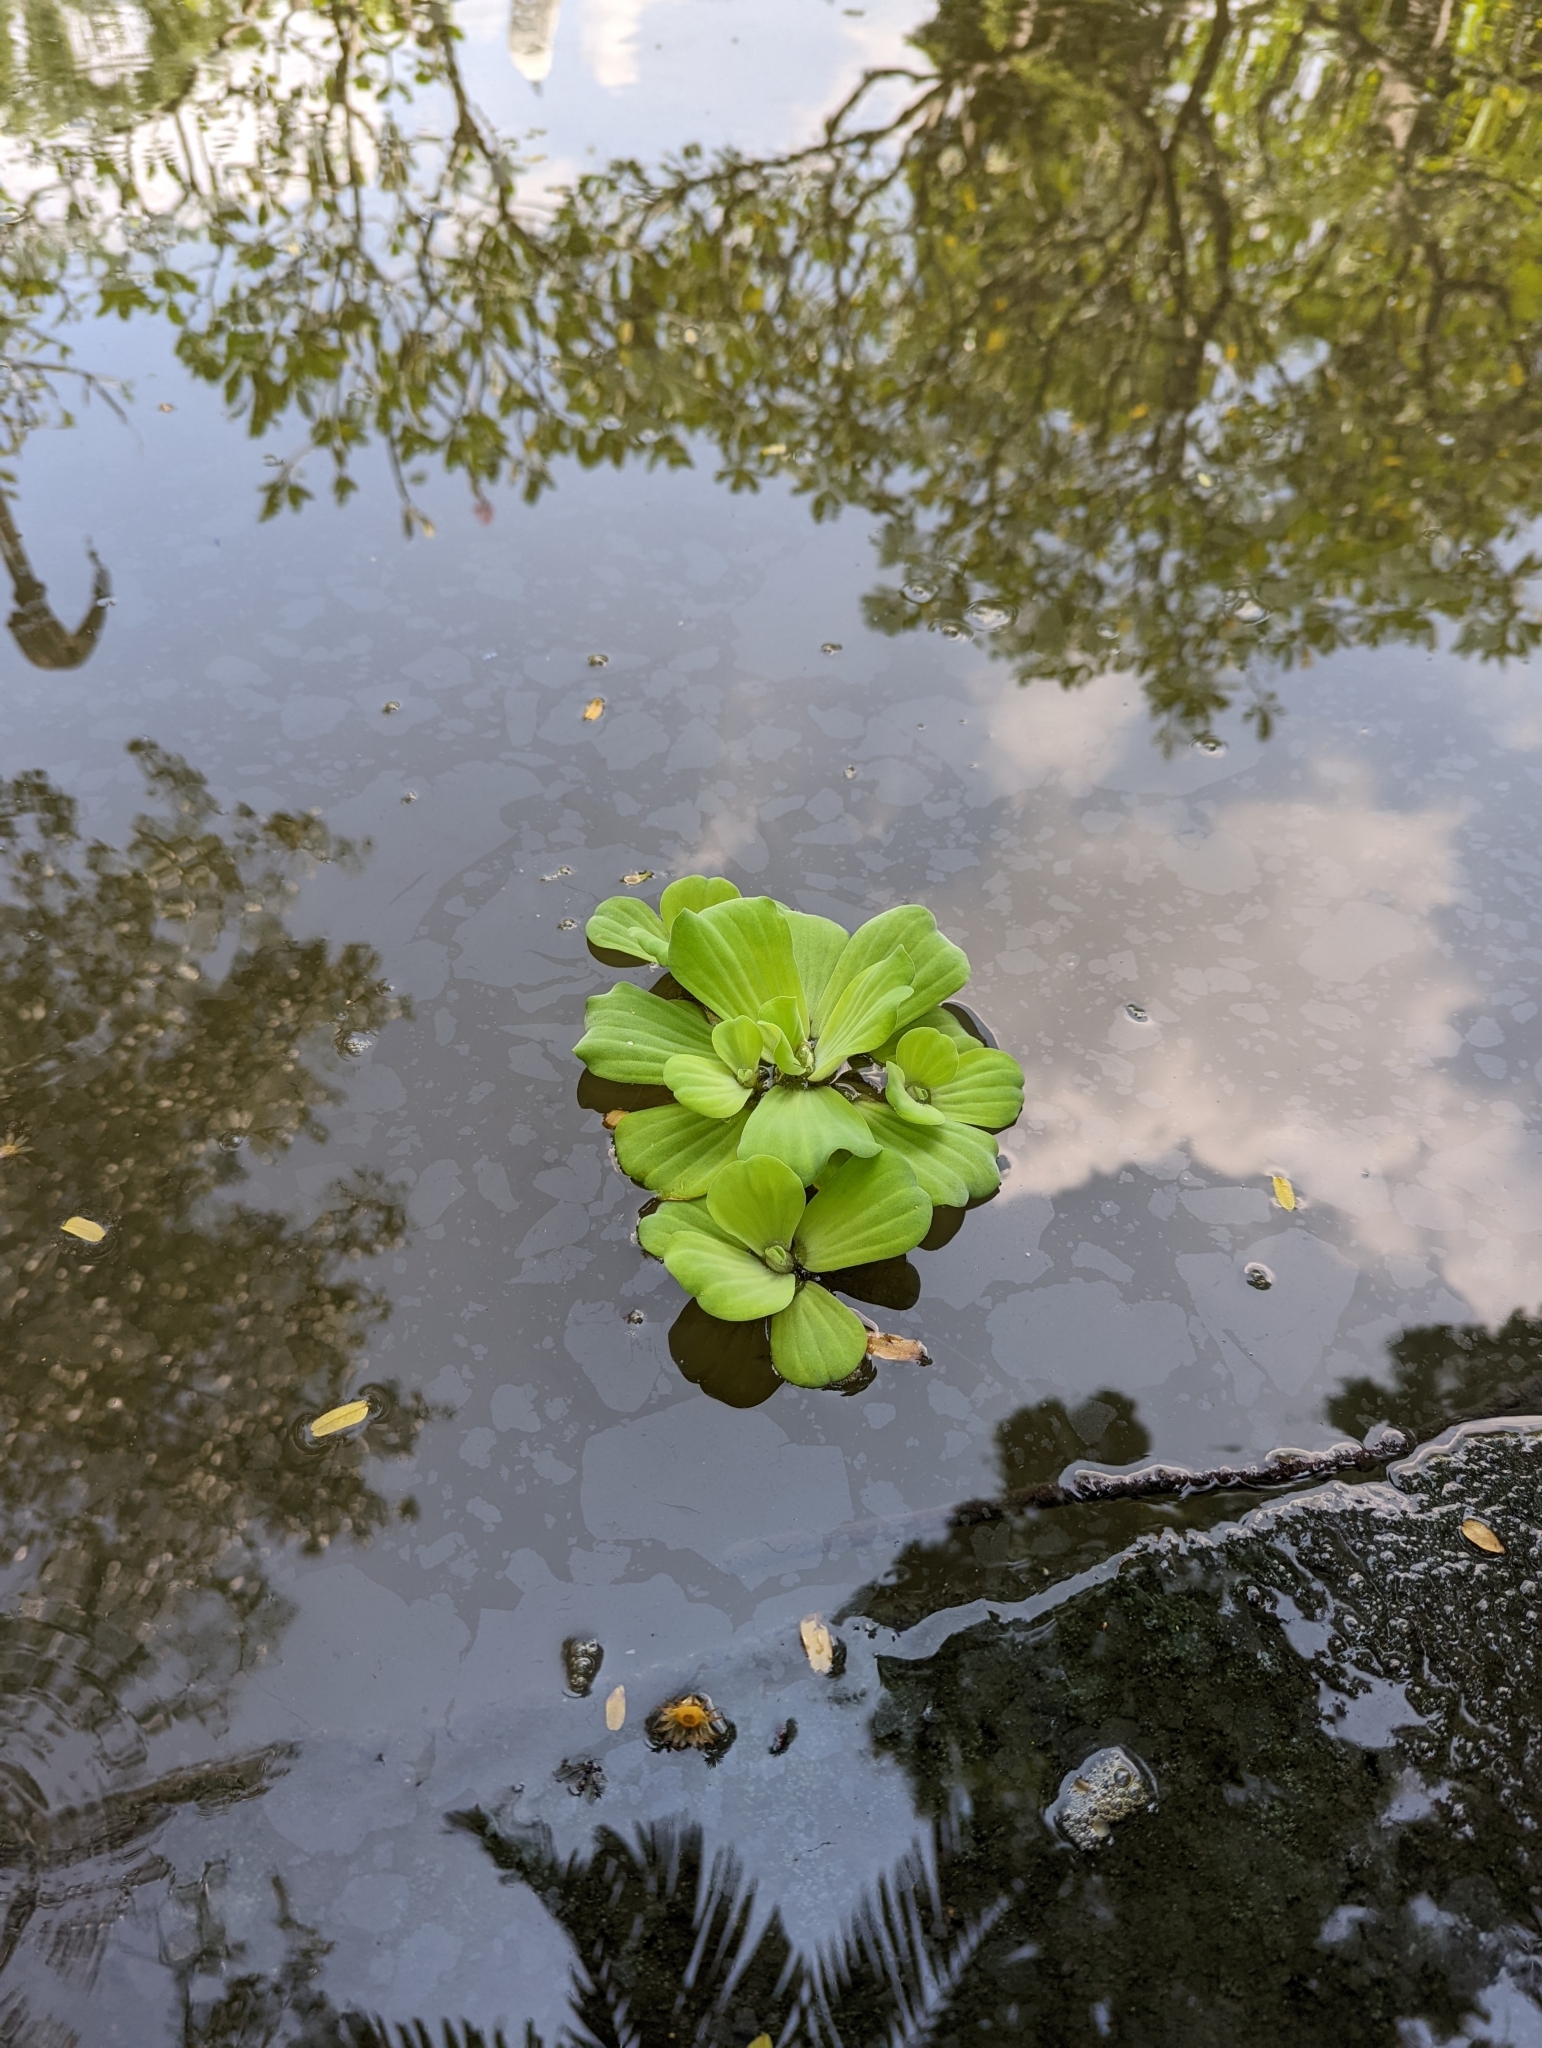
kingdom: Plantae
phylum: Tracheophyta
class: Liliopsida
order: Alismatales
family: Araceae
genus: Pistia
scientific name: Pistia stratiotes
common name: Water lettuce
